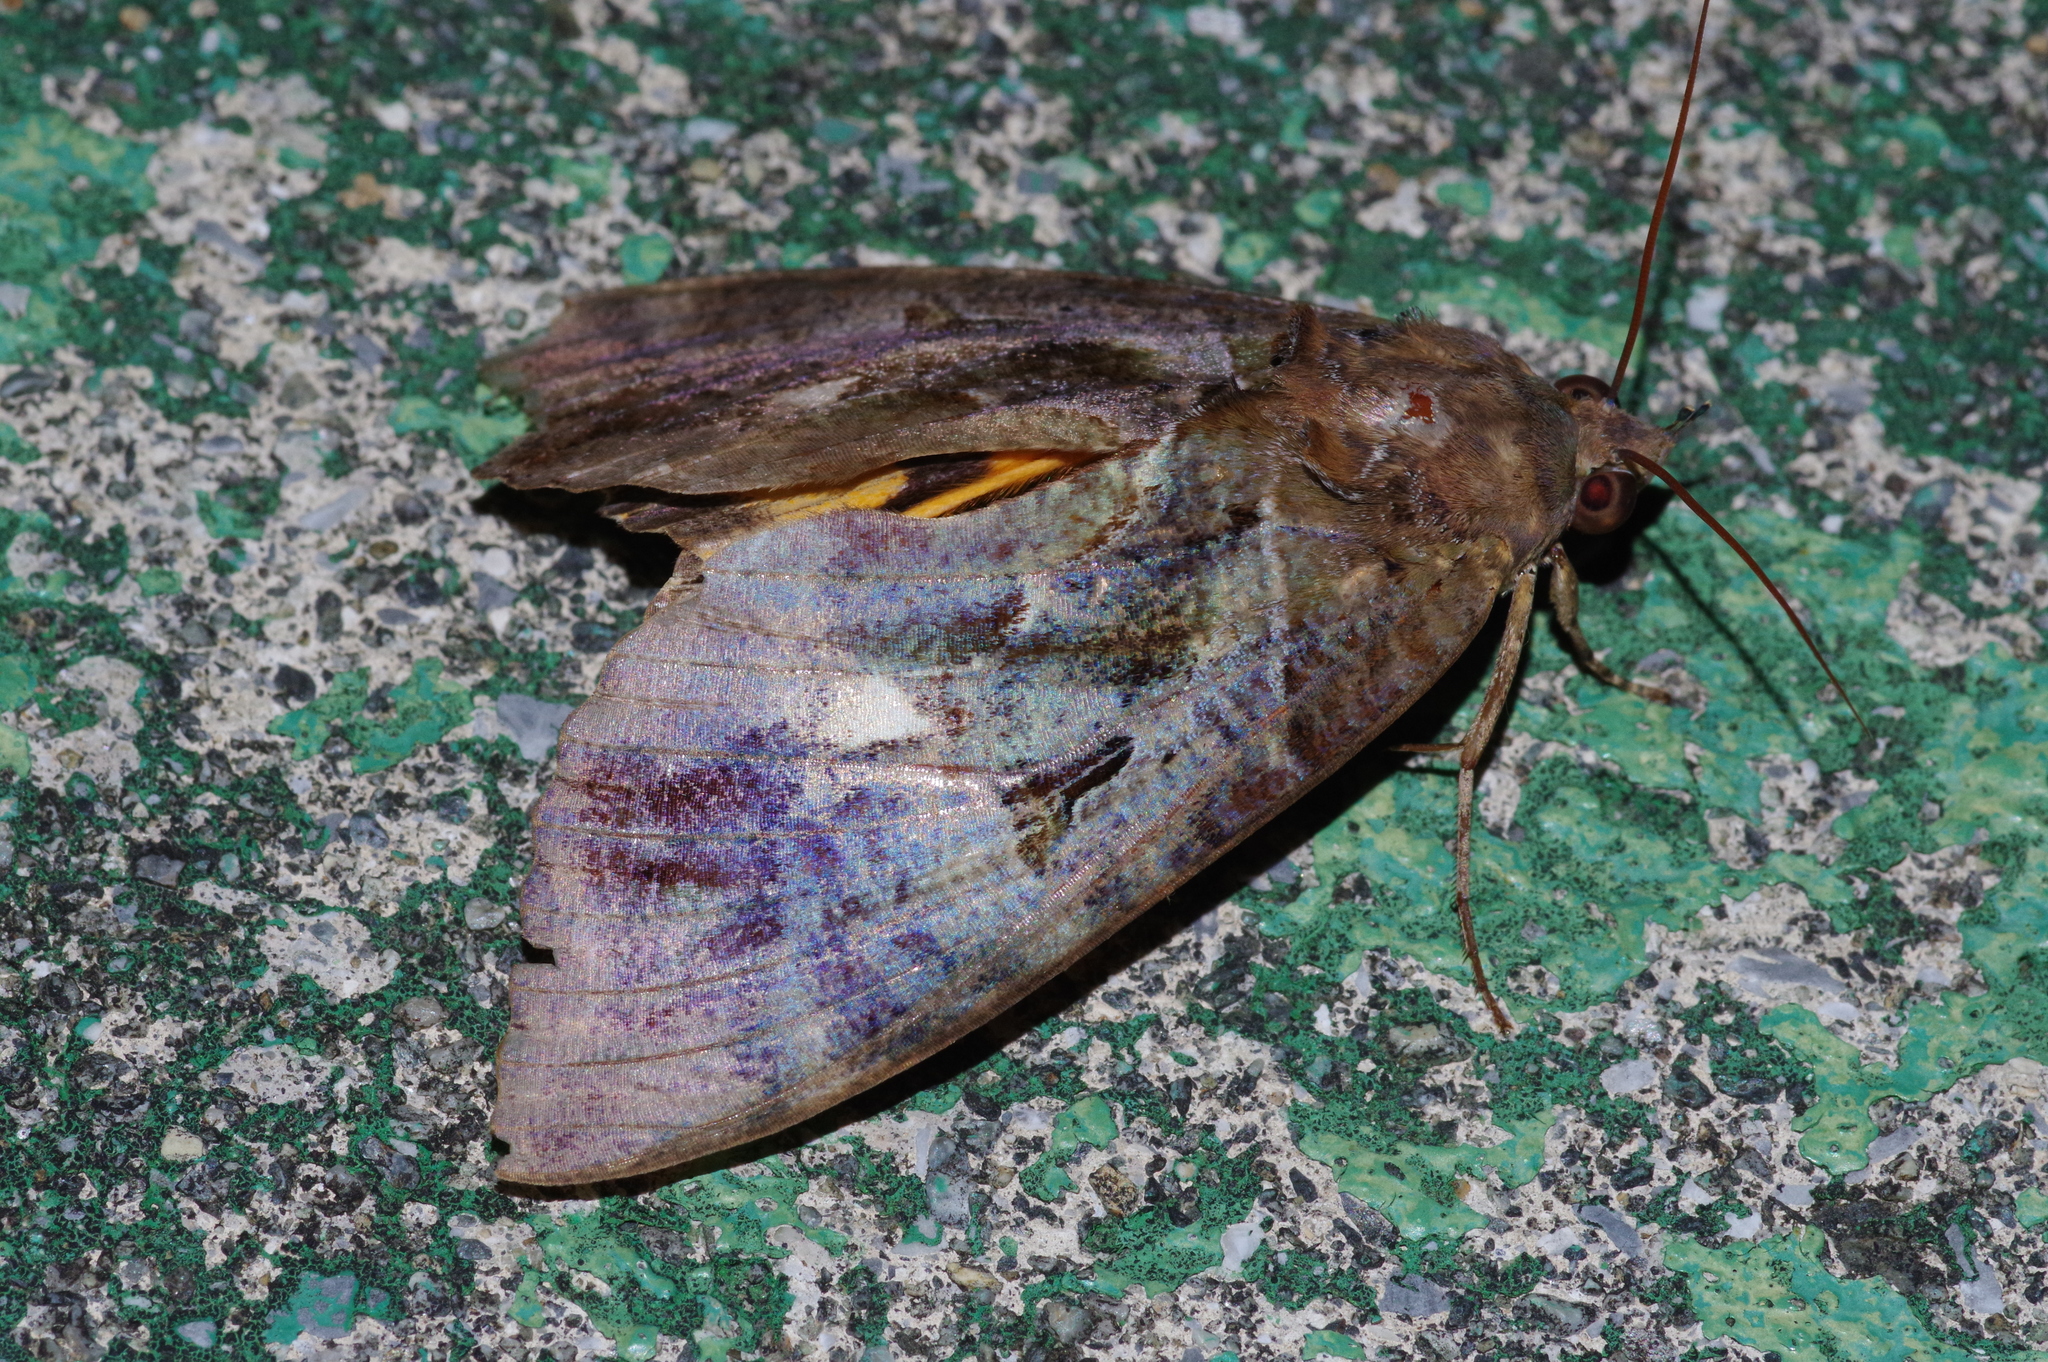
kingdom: Animalia
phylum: Arthropoda
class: Insecta
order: Lepidoptera
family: Erebidae
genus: Eudocima
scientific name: Eudocima phalonia
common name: Wasp
